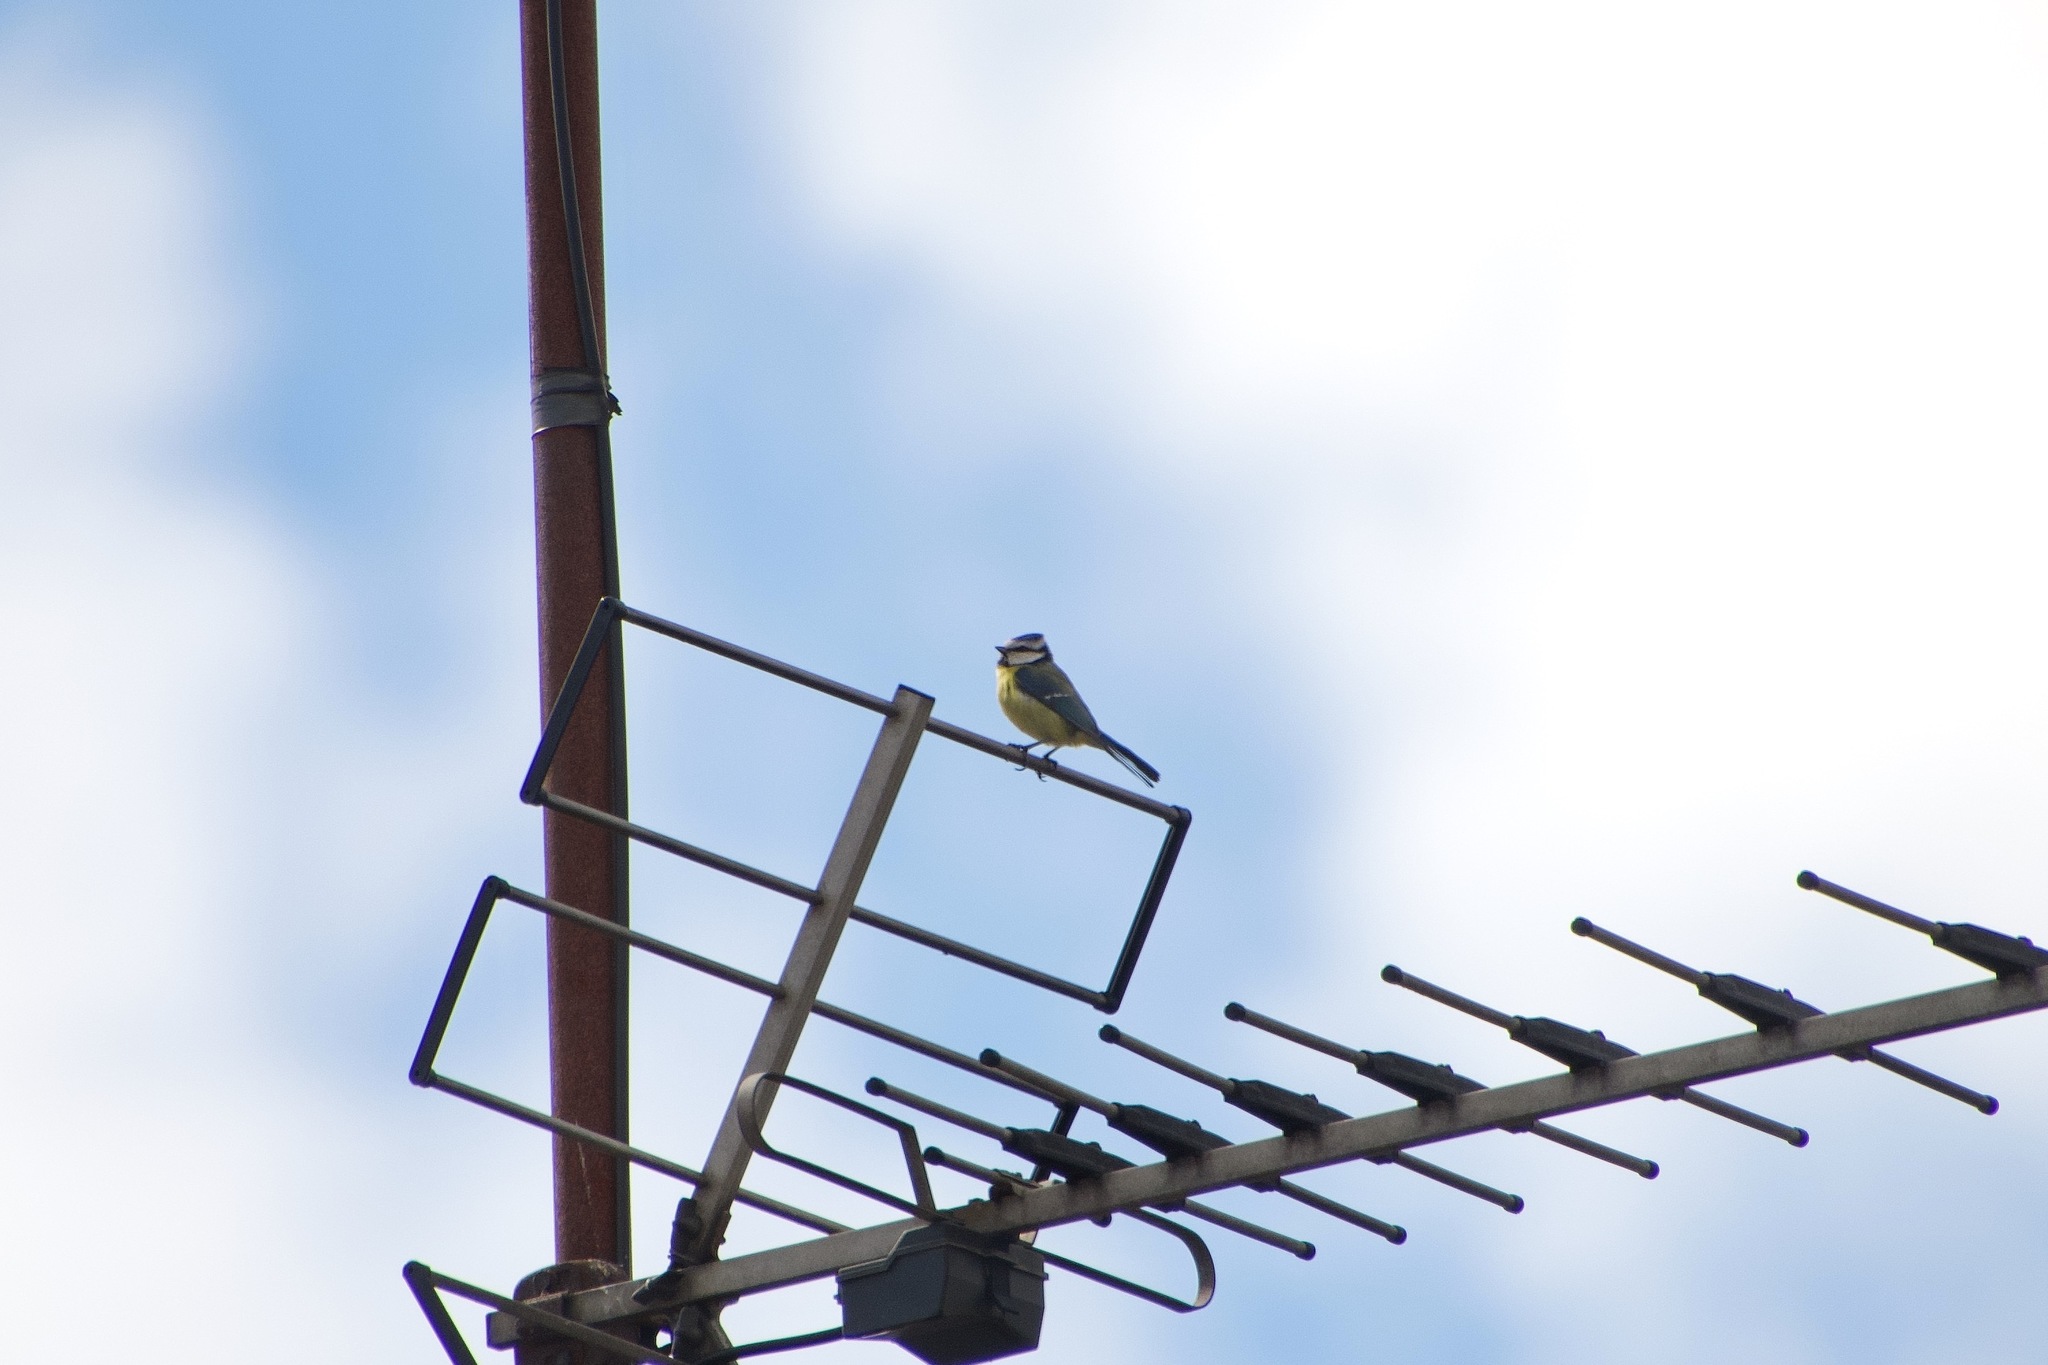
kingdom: Animalia
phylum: Chordata
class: Aves
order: Passeriformes
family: Paridae
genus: Cyanistes
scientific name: Cyanistes caeruleus
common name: Eurasian blue tit
